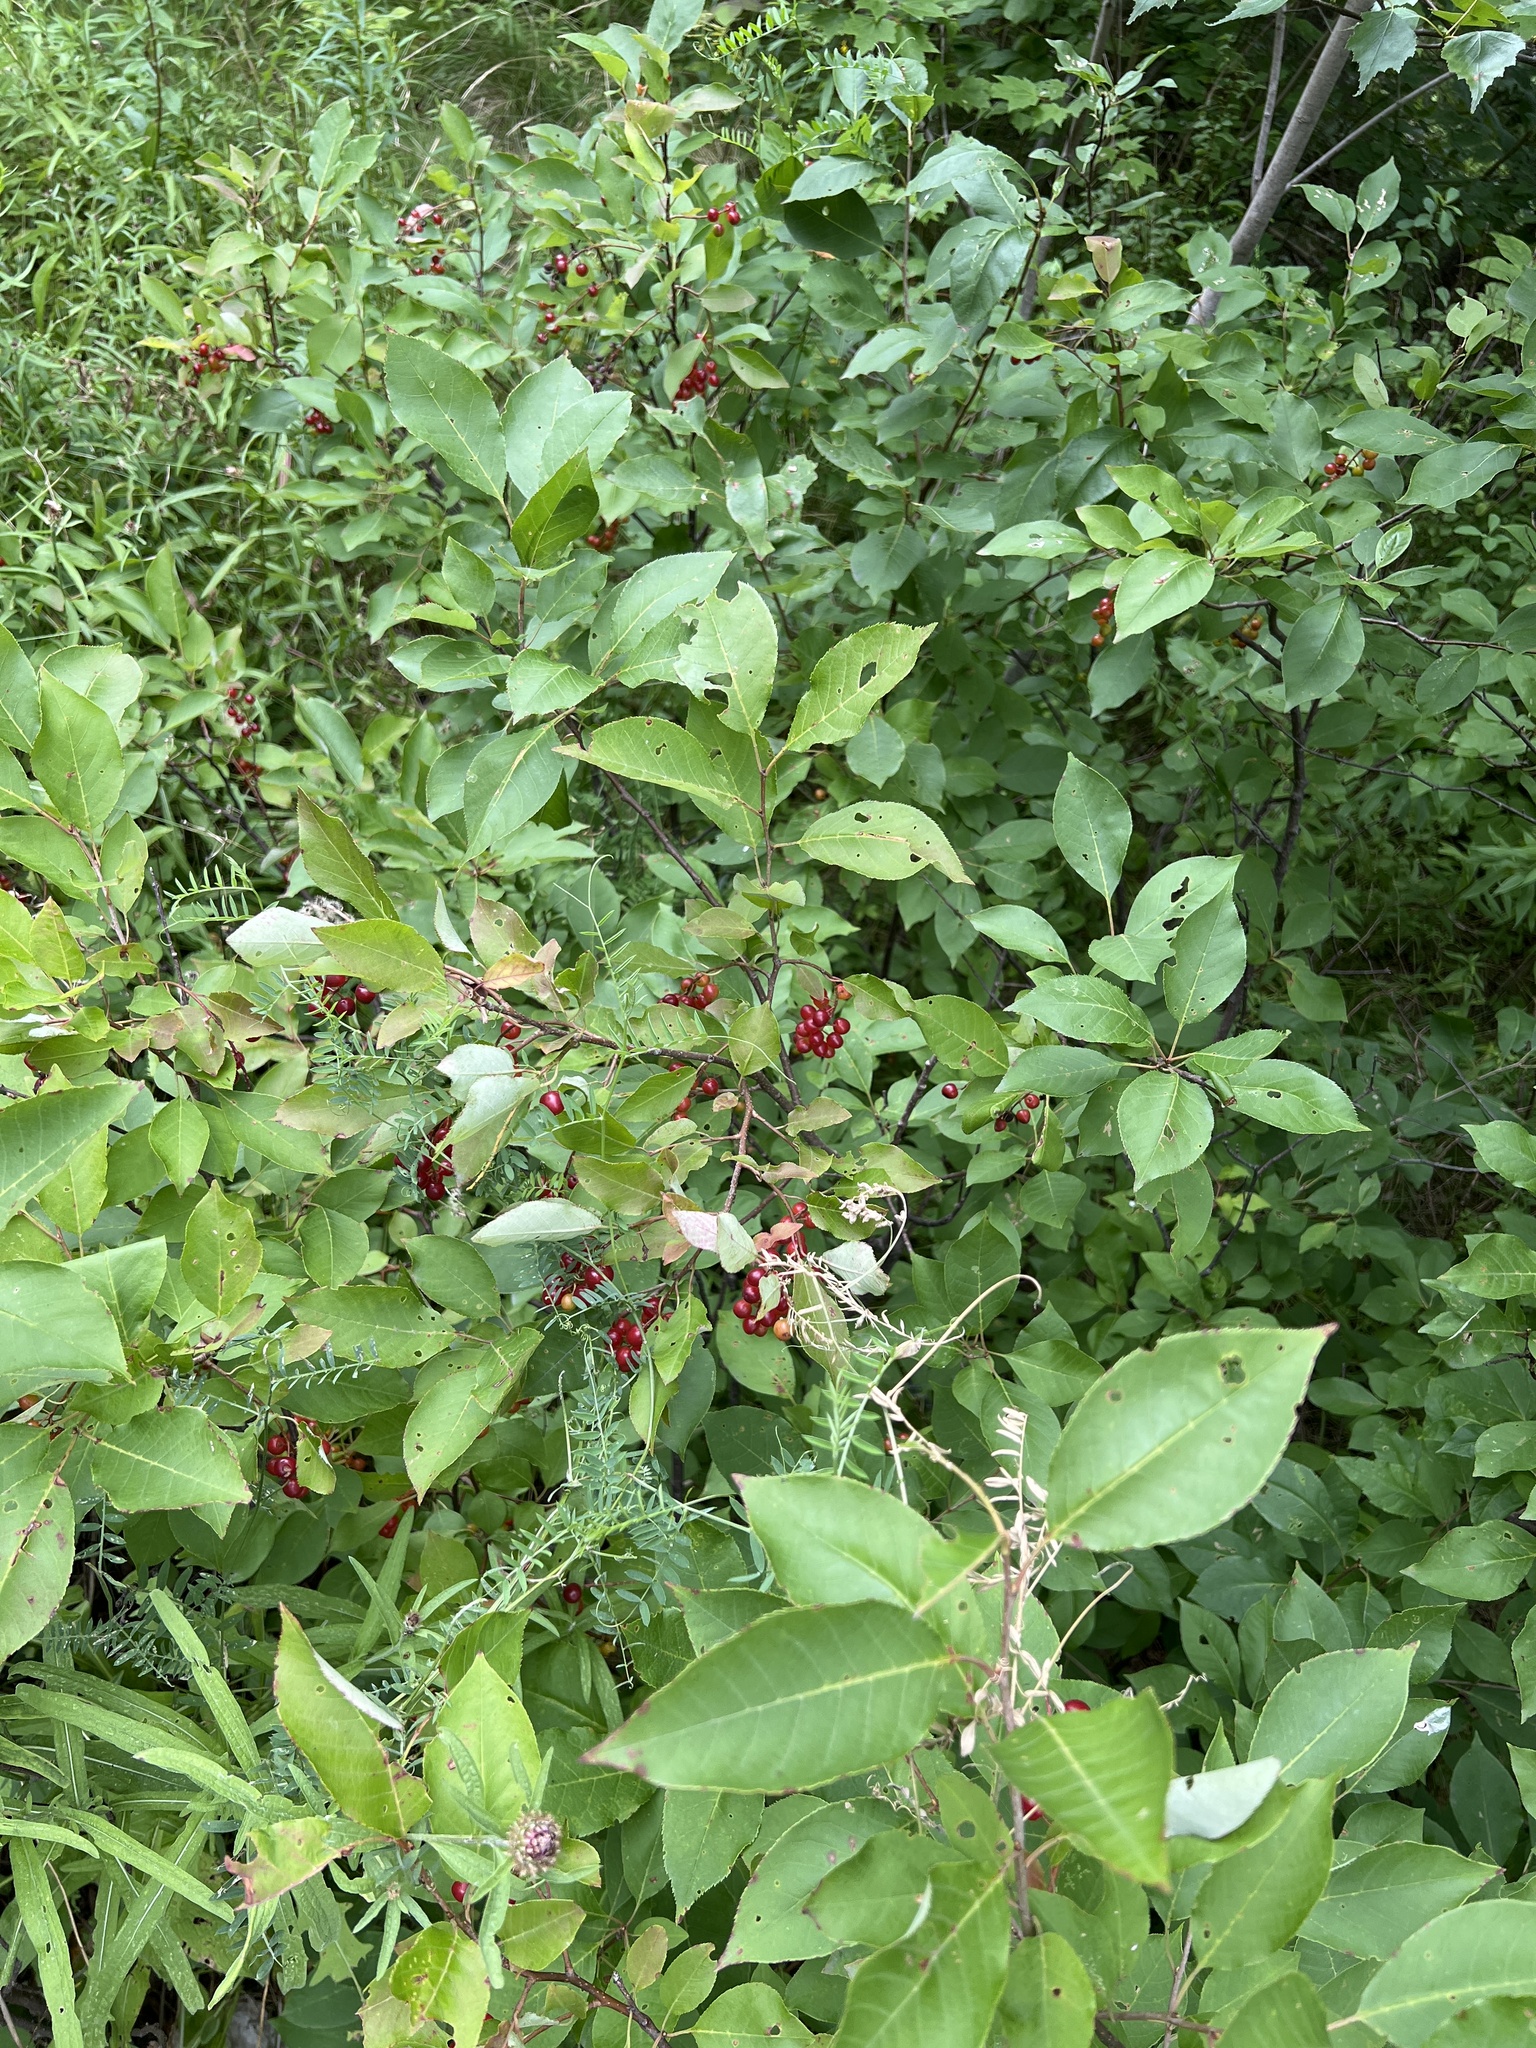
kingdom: Plantae
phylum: Tracheophyta
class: Magnoliopsida
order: Rosales
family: Rosaceae
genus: Prunus
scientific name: Prunus virginiana
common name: Chokecherry
